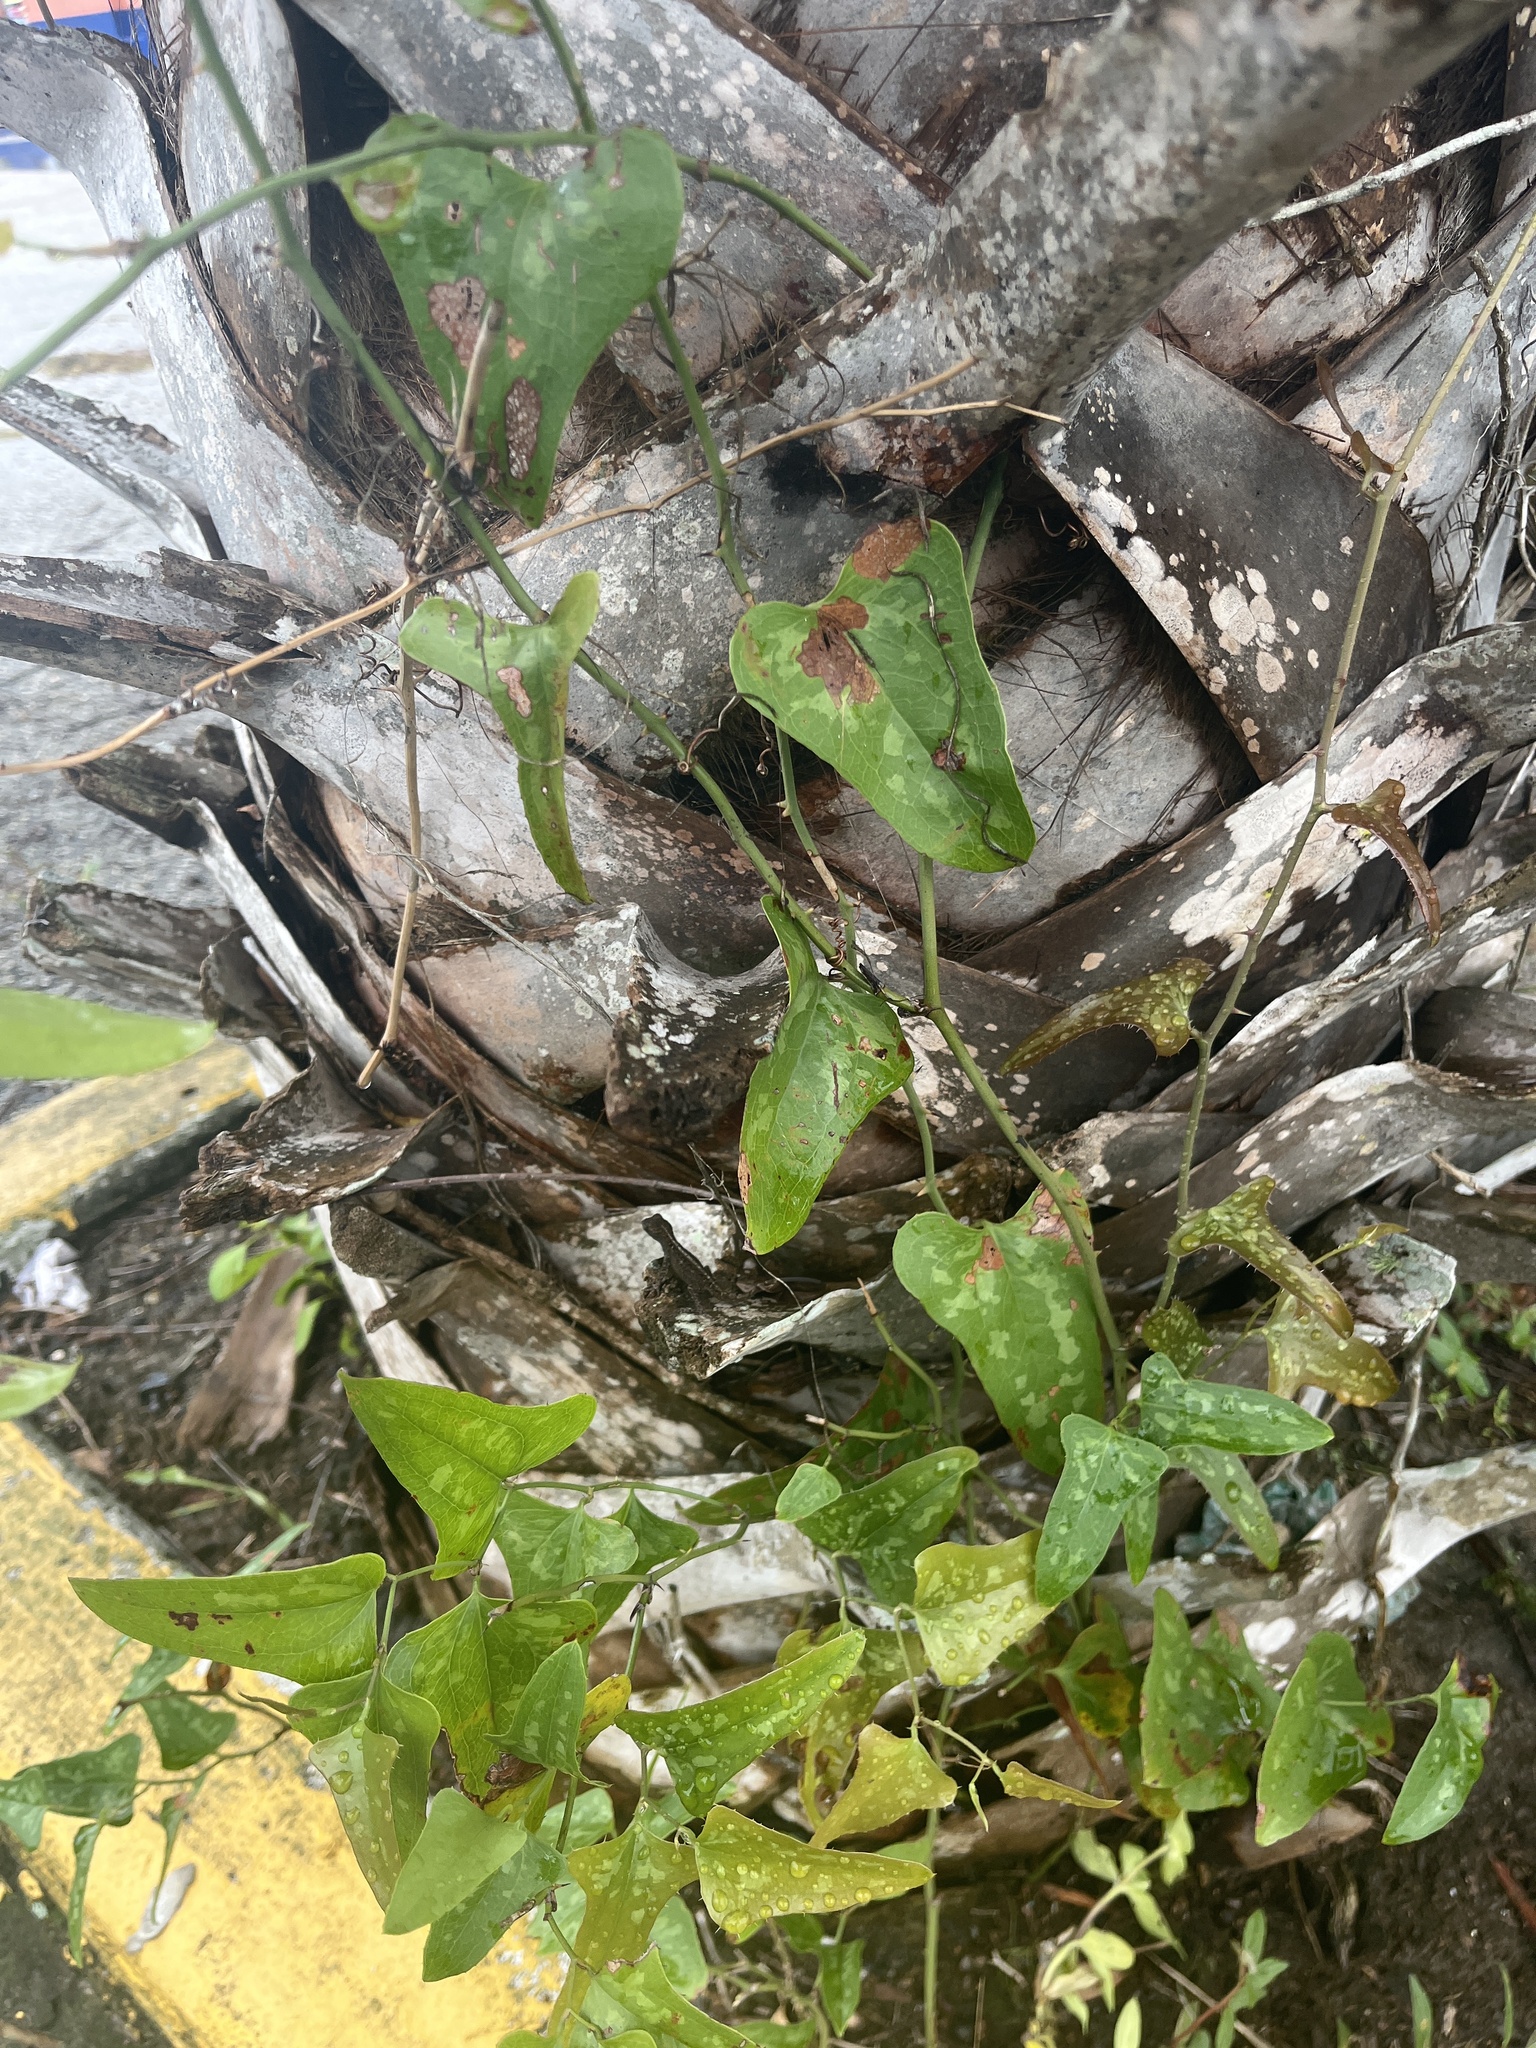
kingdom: Plantae
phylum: Tracheophyta
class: Liliopsida
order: Liliales
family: Smilacaceae
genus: Smilax
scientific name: Smilax bona-nox
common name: Catbrier
